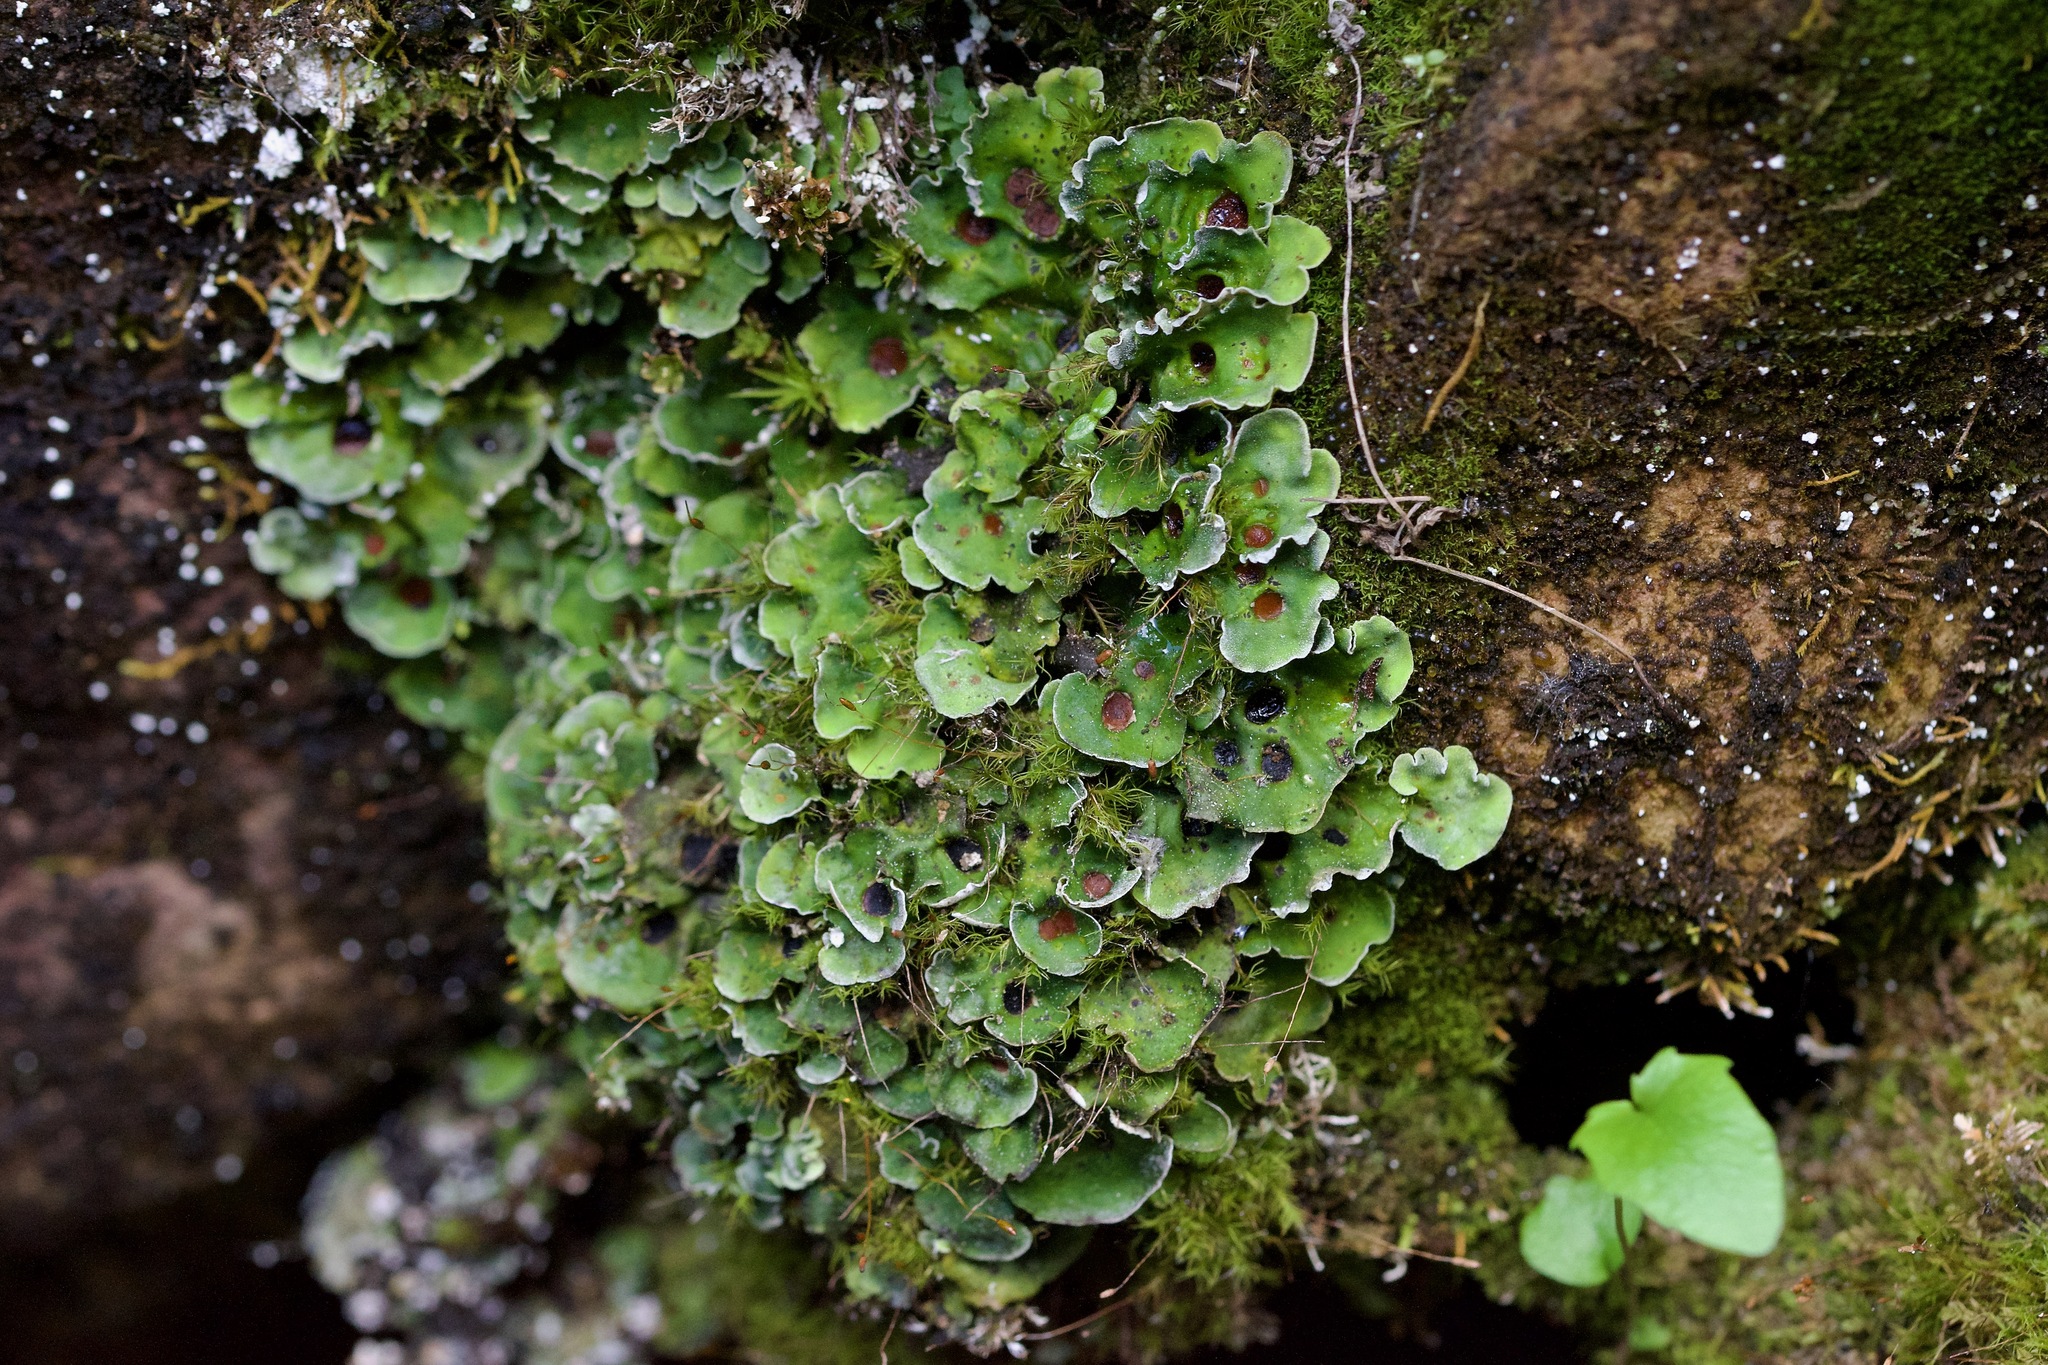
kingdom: Fungi
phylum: Ascomycota
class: Lecanoromycetes
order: Peltigerales
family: Peltigeraceae
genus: Solorina
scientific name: Solorina saccata
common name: Common chocolate chip lichen
